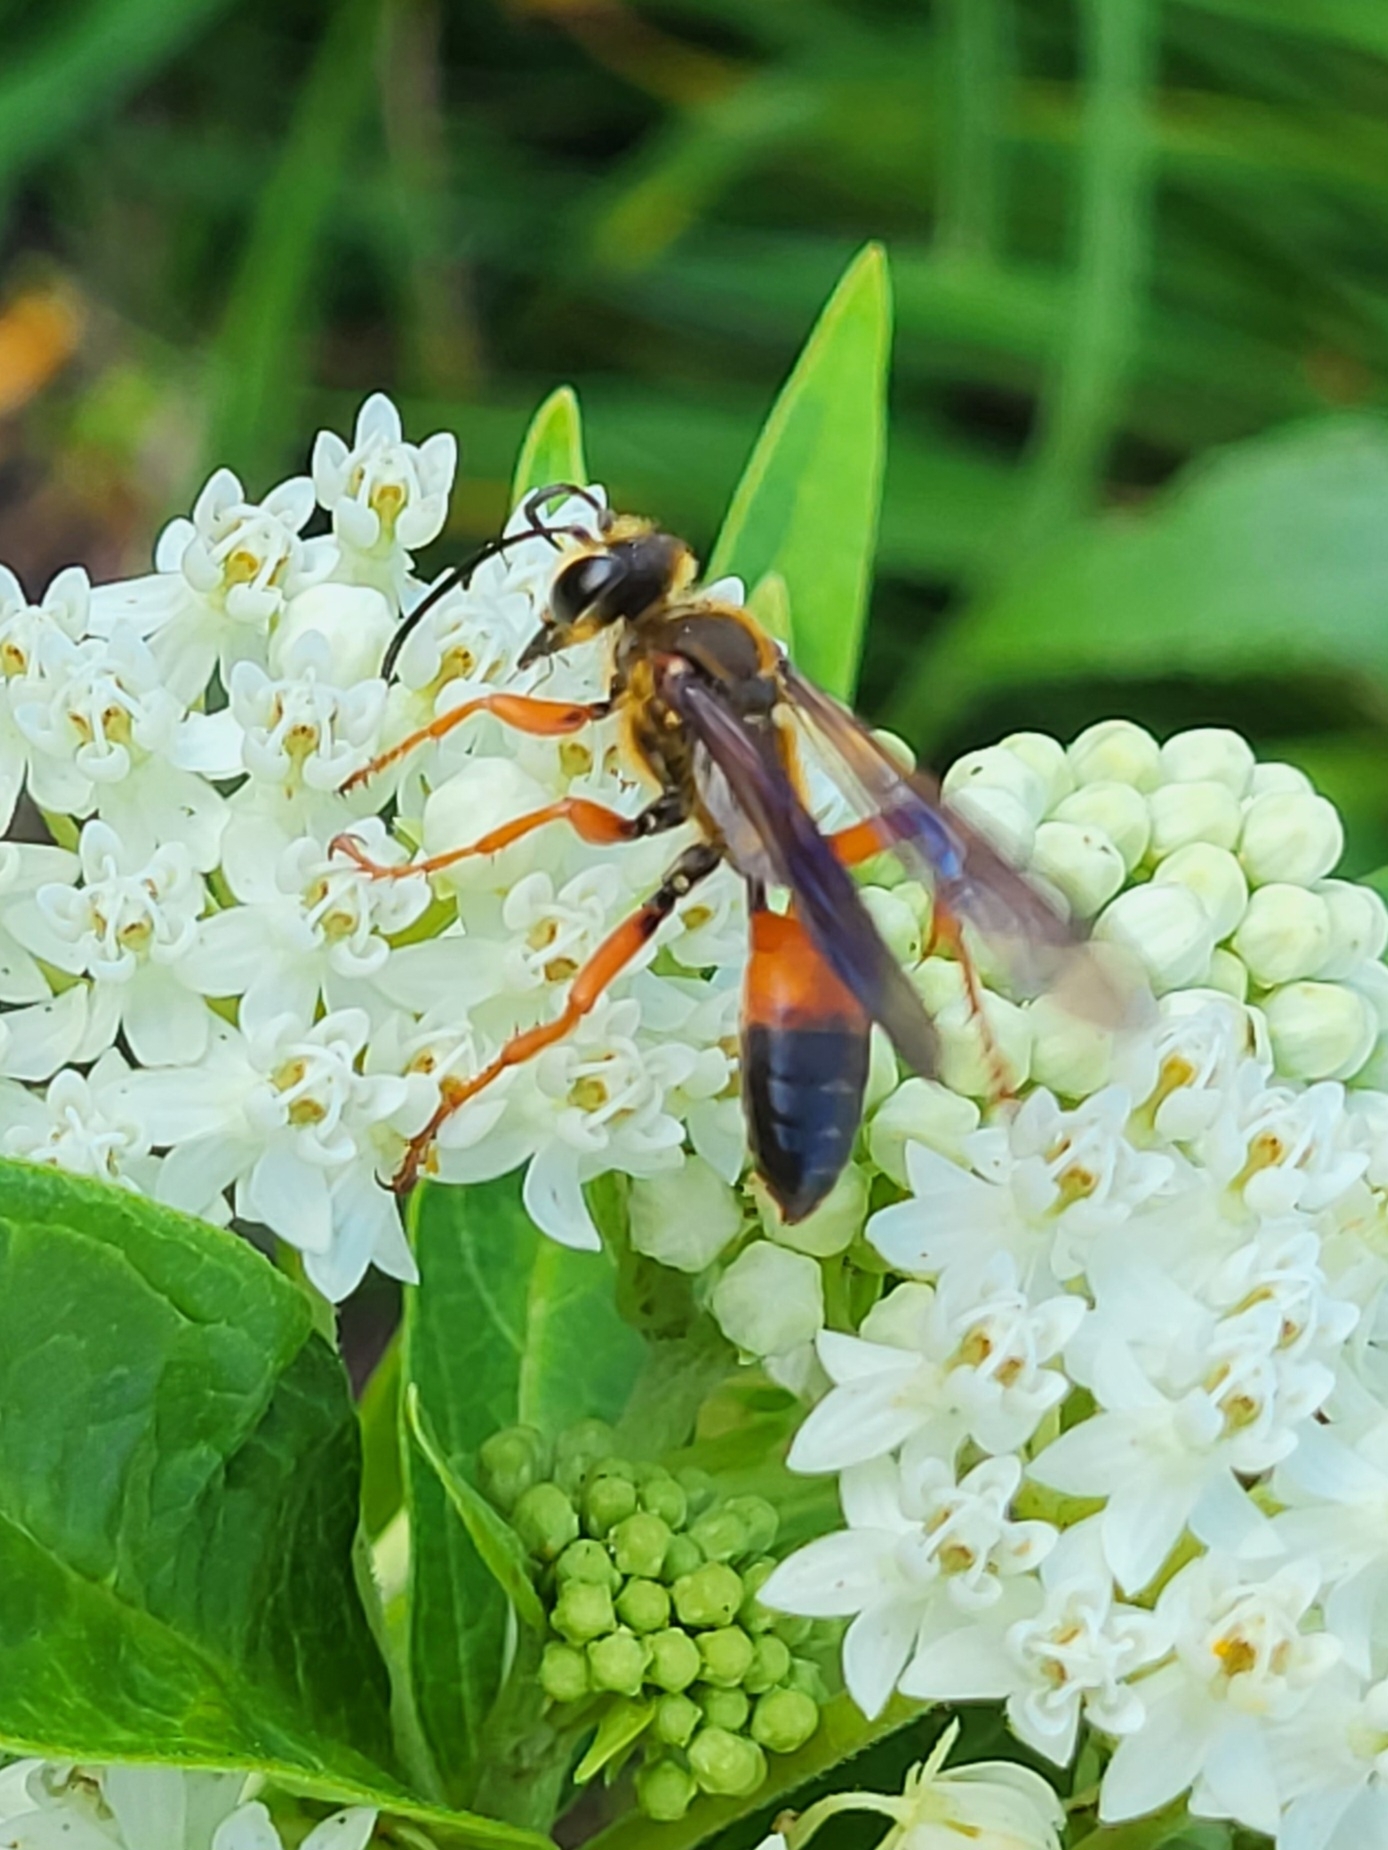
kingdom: Animalia
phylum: Arthropoda
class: Insecta
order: Hymenoptera
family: Sphecidae
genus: Sphex
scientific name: Sphex ichneumoneus
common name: Great golden digger wasp
